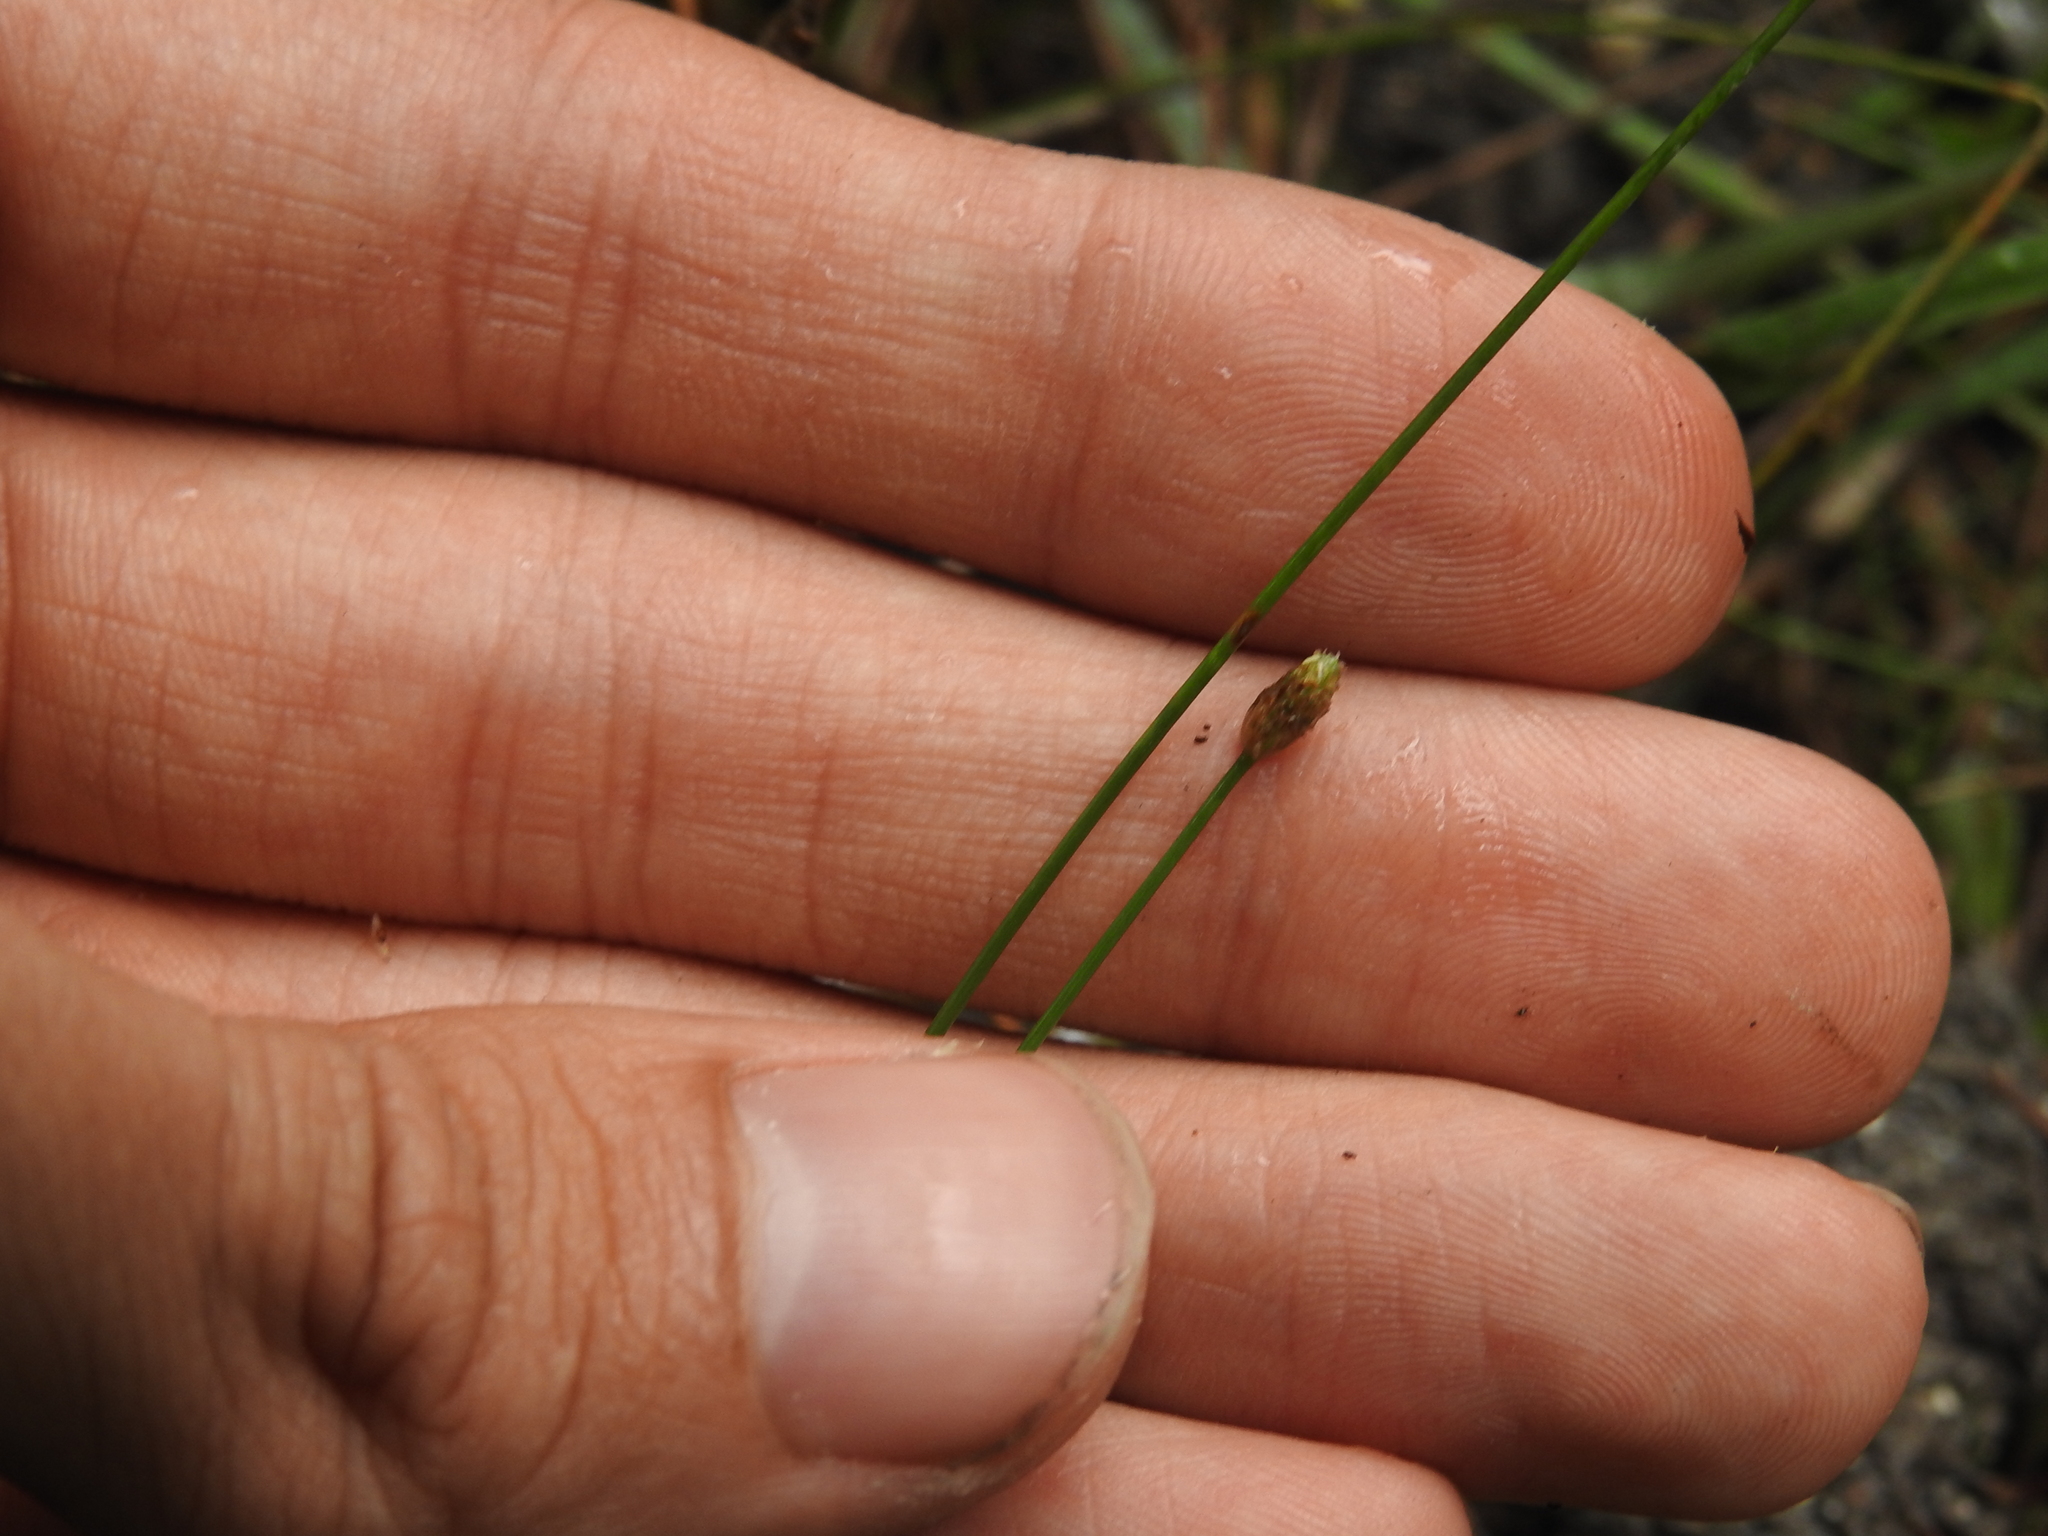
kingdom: Plantae
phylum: Tracheophyta
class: Liliopsida
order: Poales
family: Cyperaceae
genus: Eleocharis
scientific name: Eleocharis geniculata
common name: Canada spikesedge
